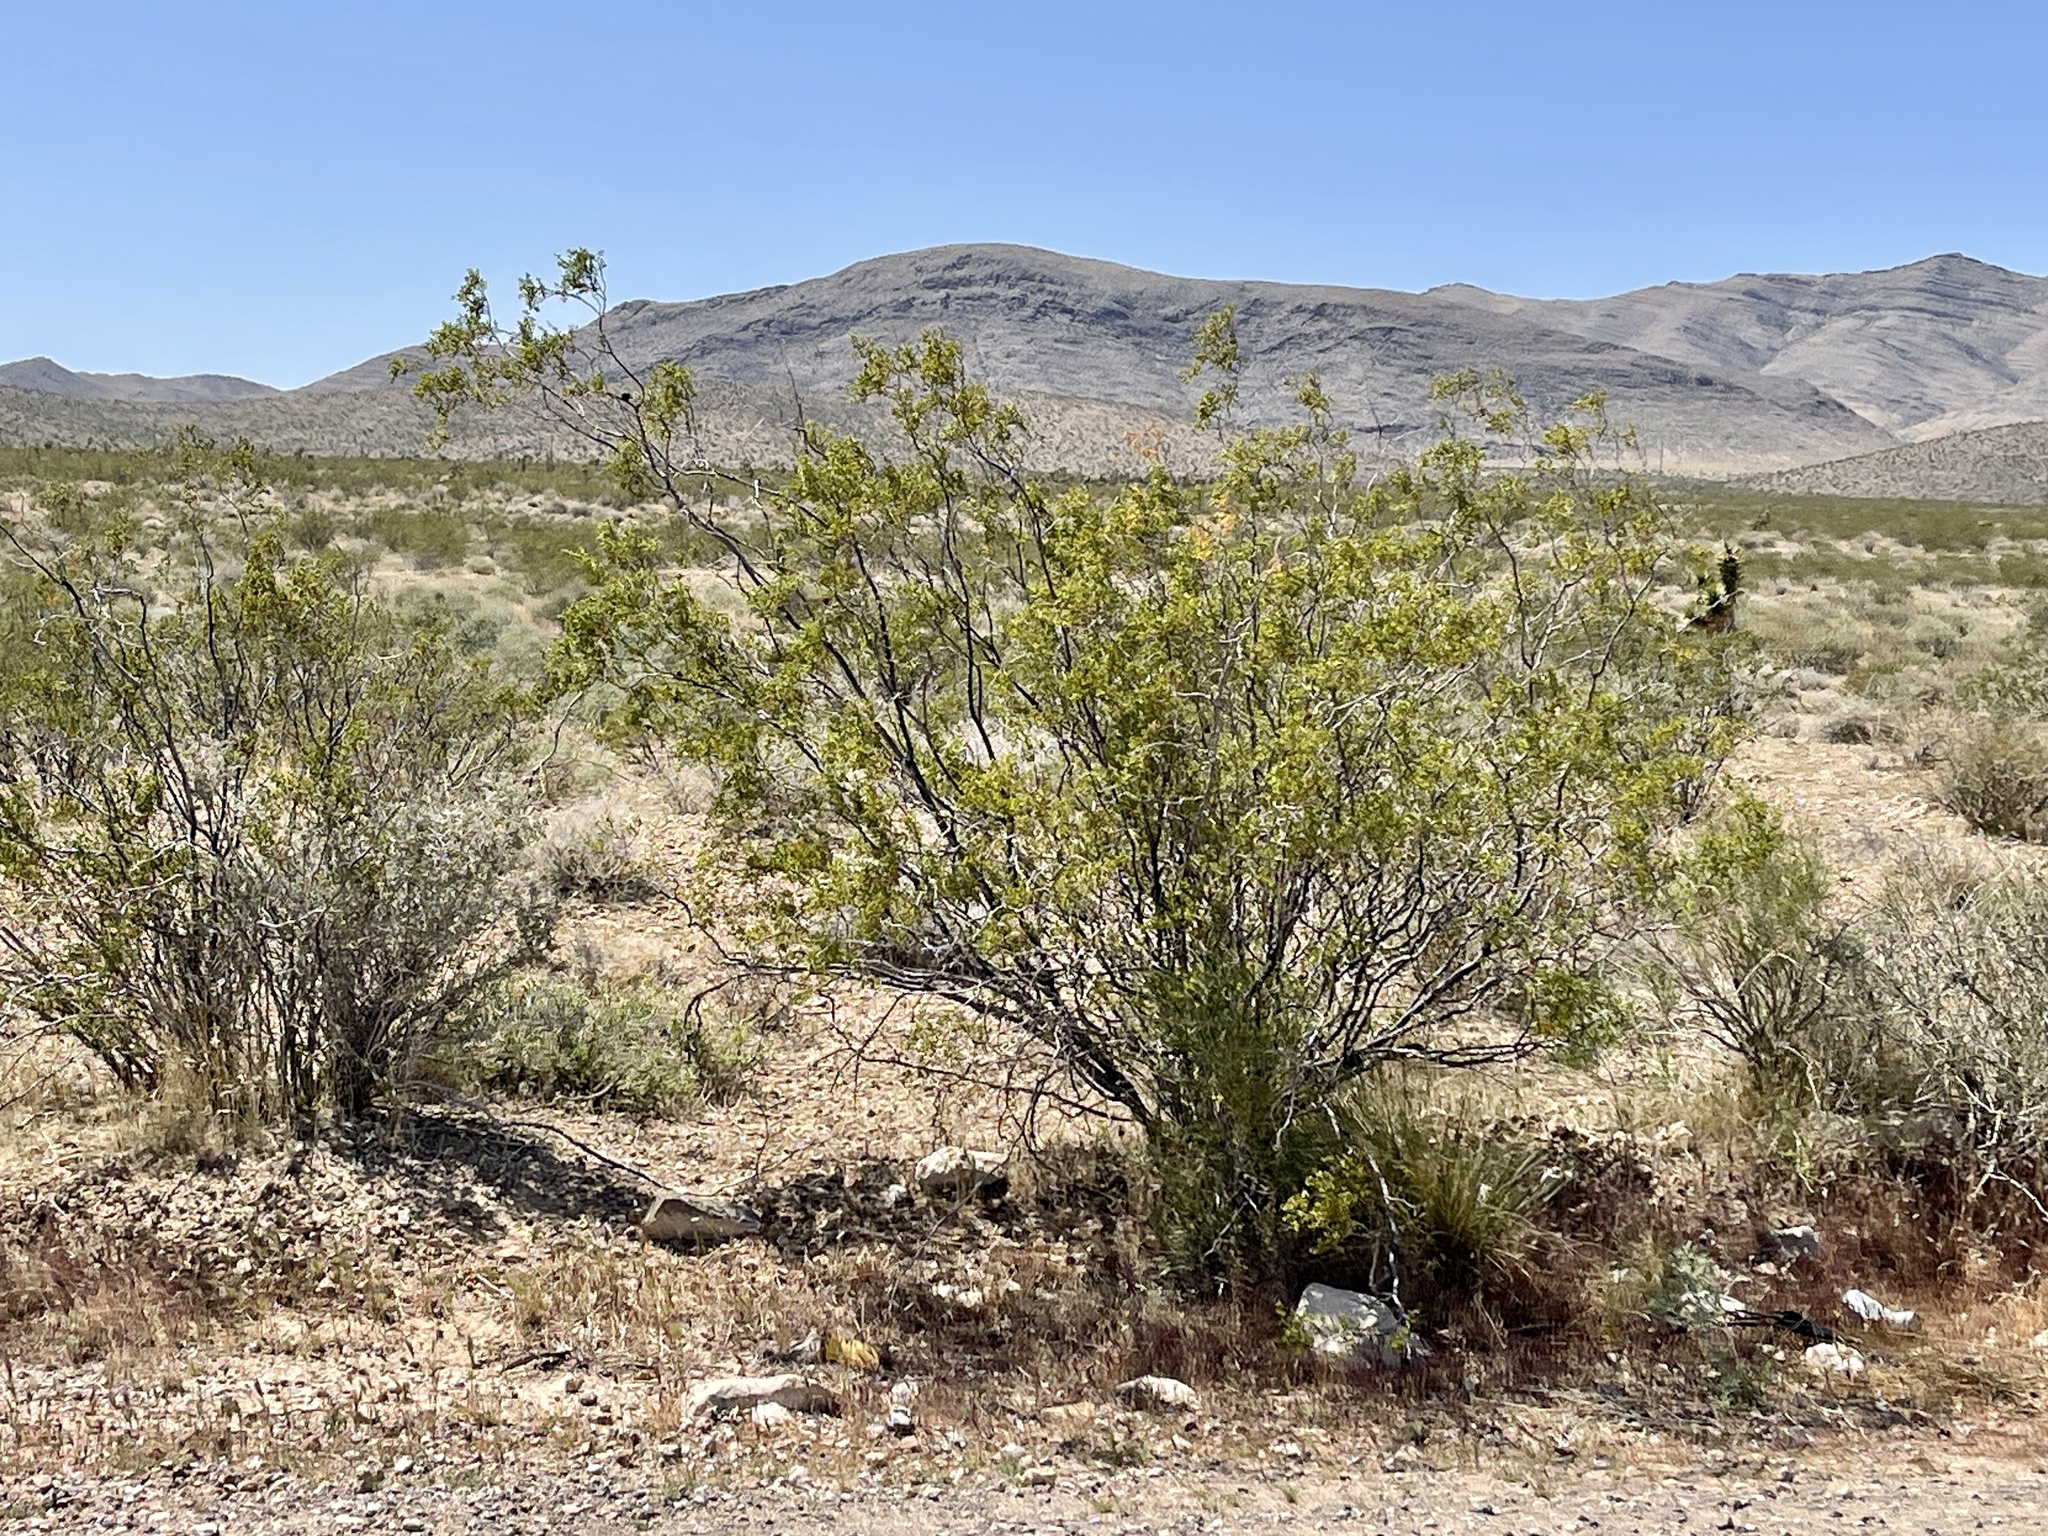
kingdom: Plantae
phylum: Tracheophyta
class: Magnoliopsida
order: Zygophyllales
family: Zygophyllaceae
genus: Larrea
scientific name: Larrea tridentata
